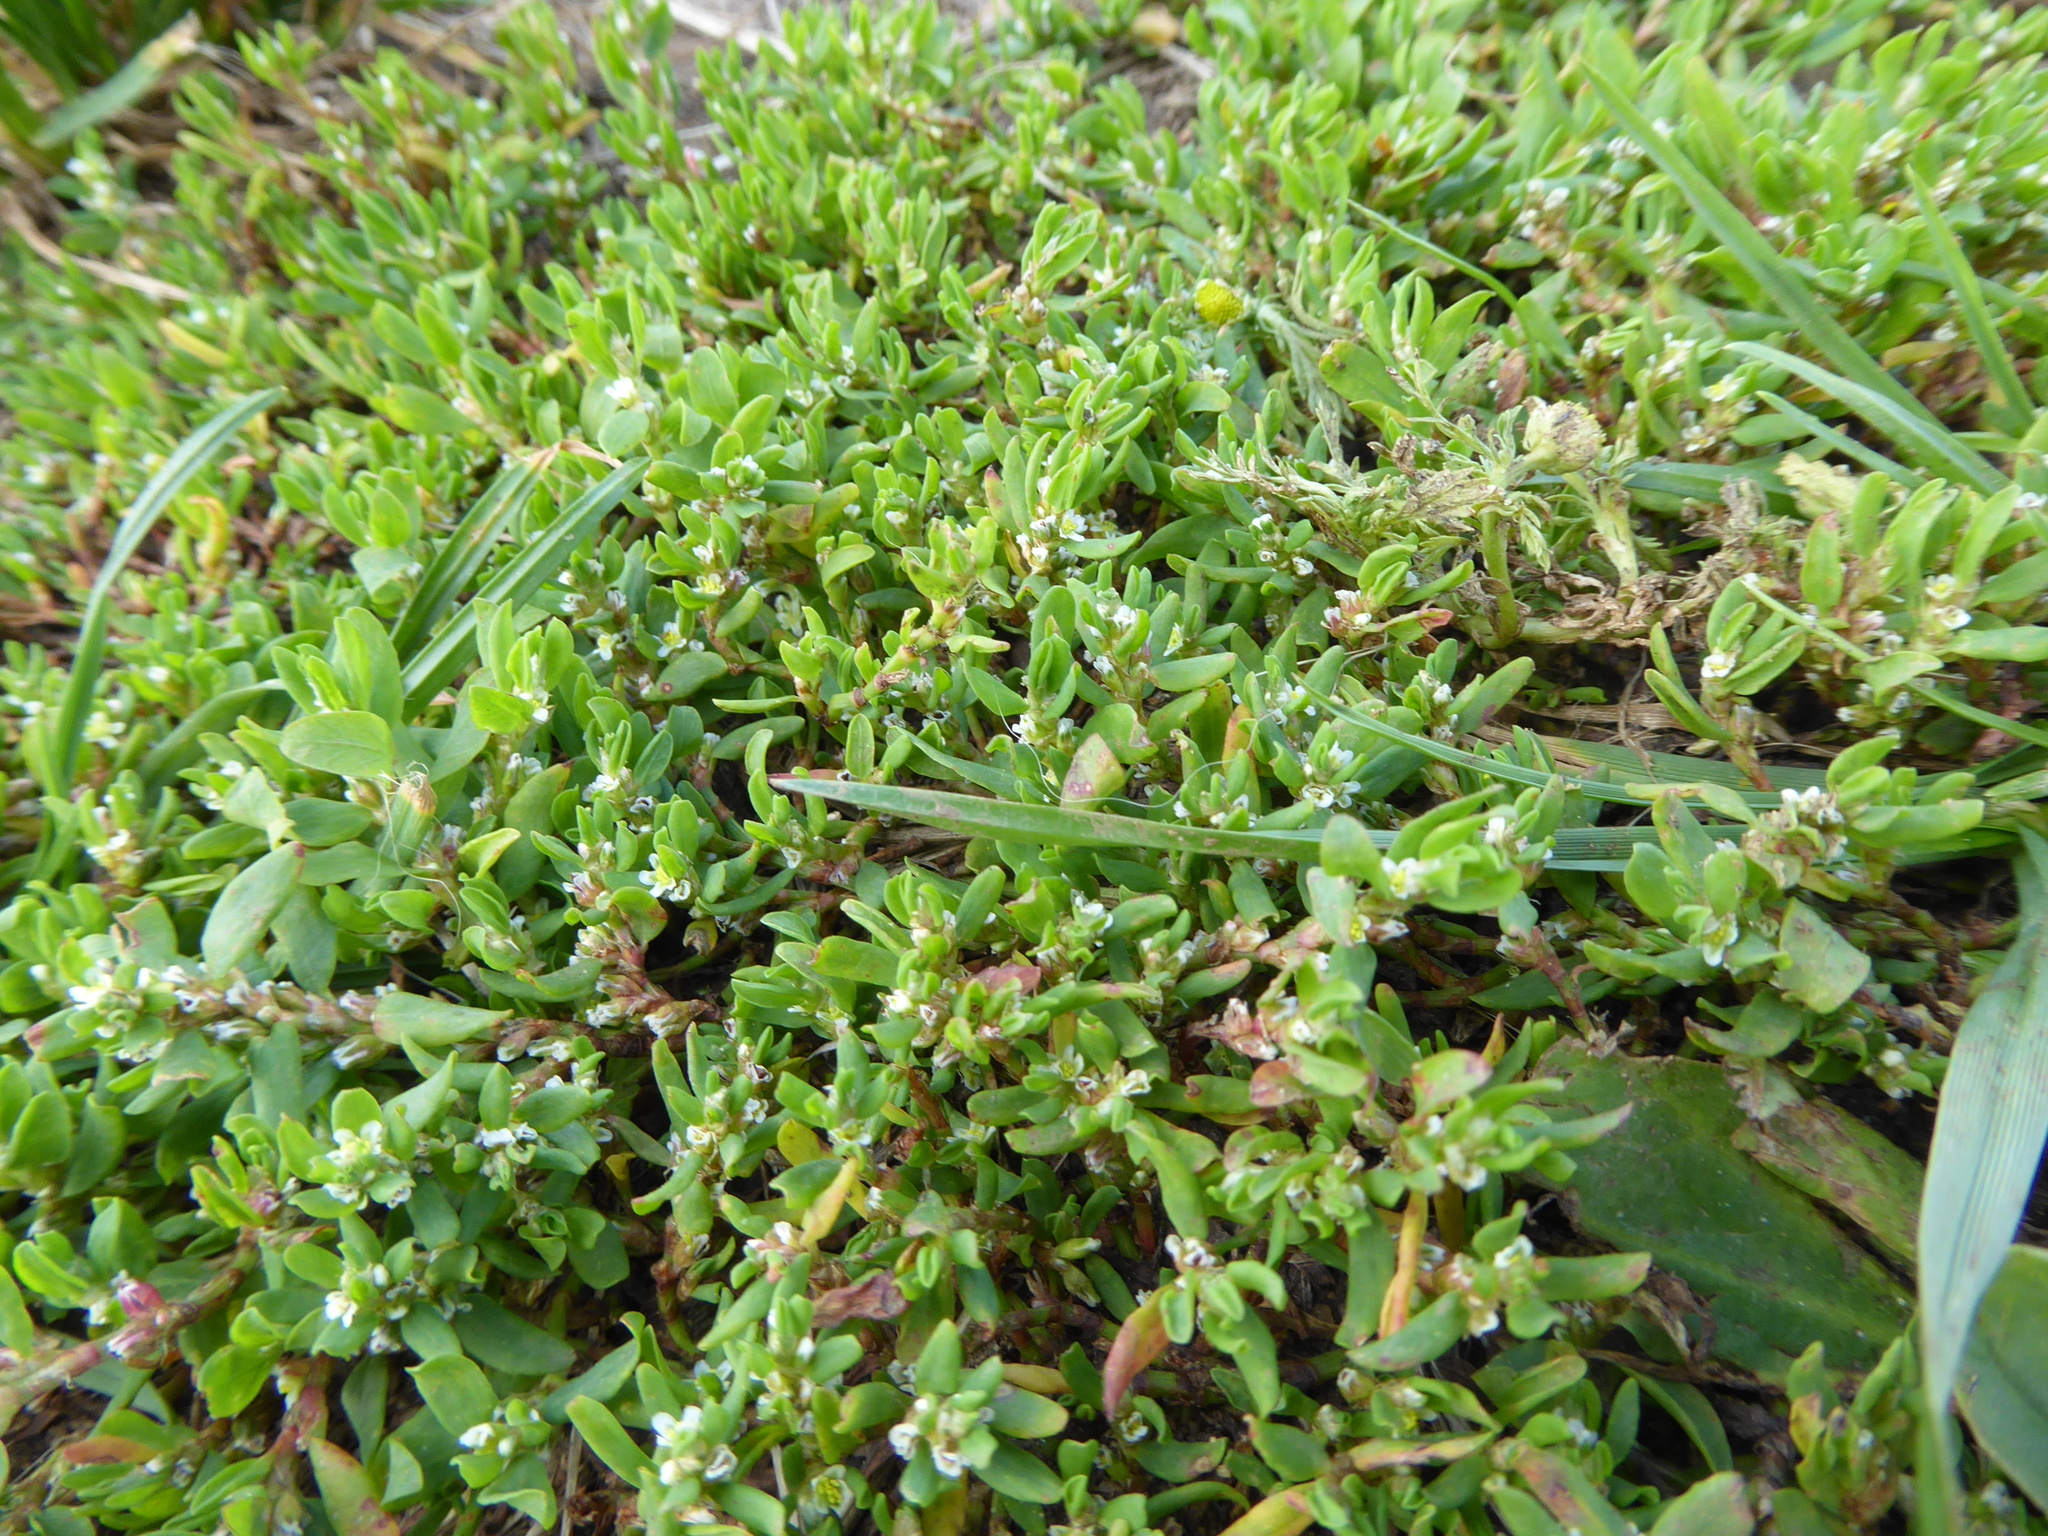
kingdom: Plantae
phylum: Tracheophyta
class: Magnoliopsida
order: Caryophyllales
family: Polygonaceae
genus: Polygonum
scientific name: Polygonum
